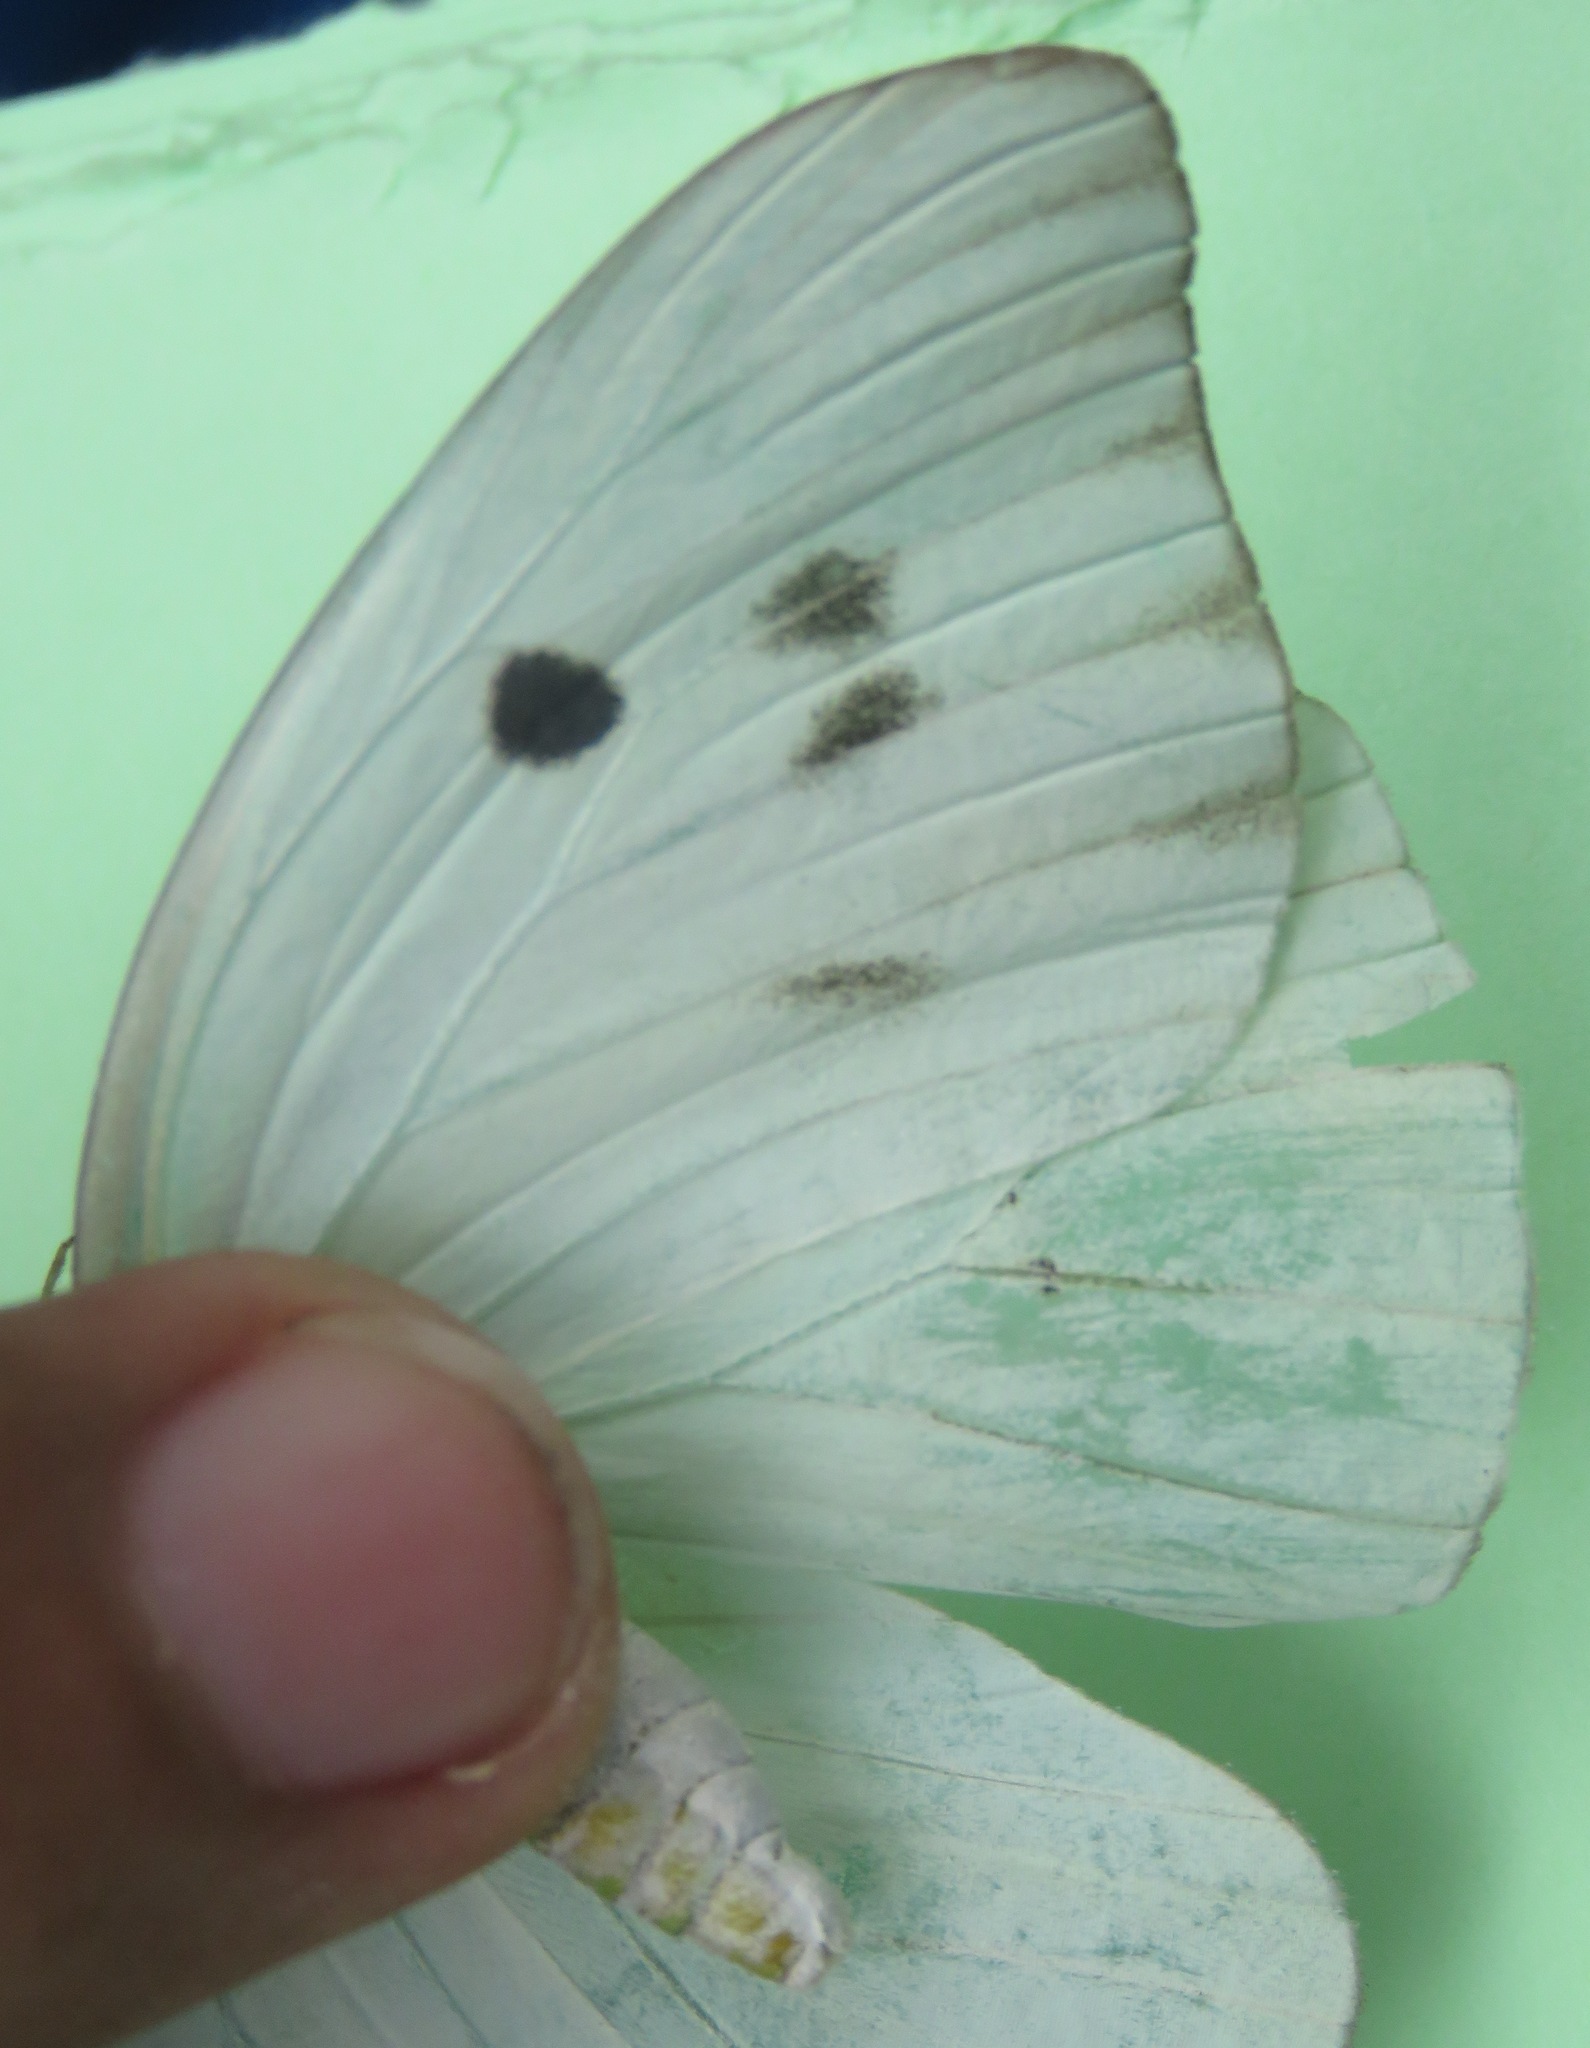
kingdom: Animalia
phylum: Arthropoda
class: Insecta
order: Lepidoptera
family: Pieridae
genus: Ganyra
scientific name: Ganyra josephina
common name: Giant white
